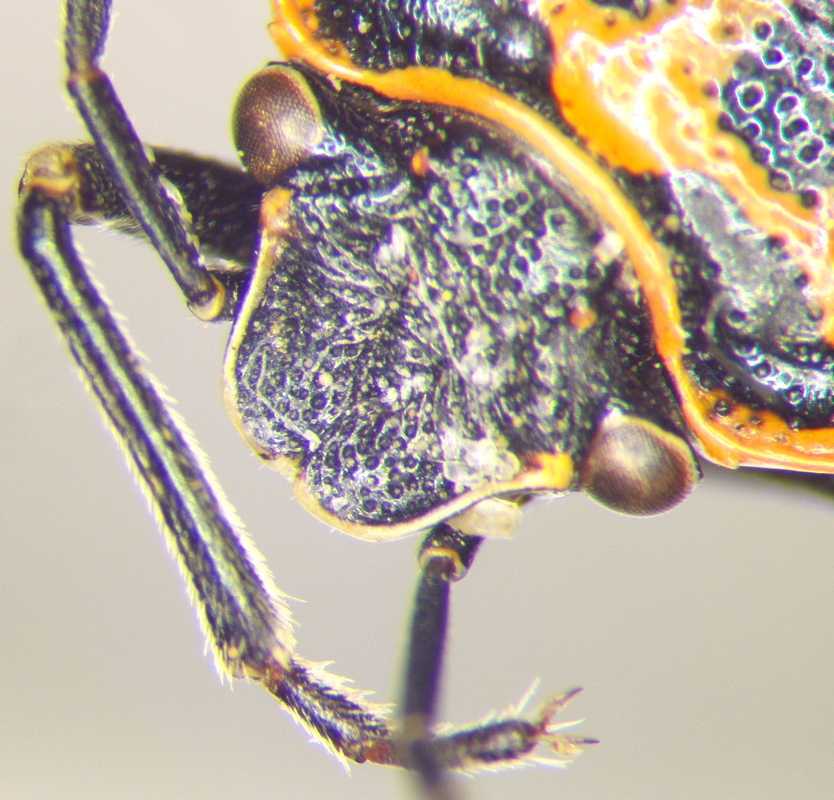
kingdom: Animalia
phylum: Arthropoda
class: Insecta
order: Hemiptera
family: Pentatomidae
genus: Eurydema
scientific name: Eurydema ornata
